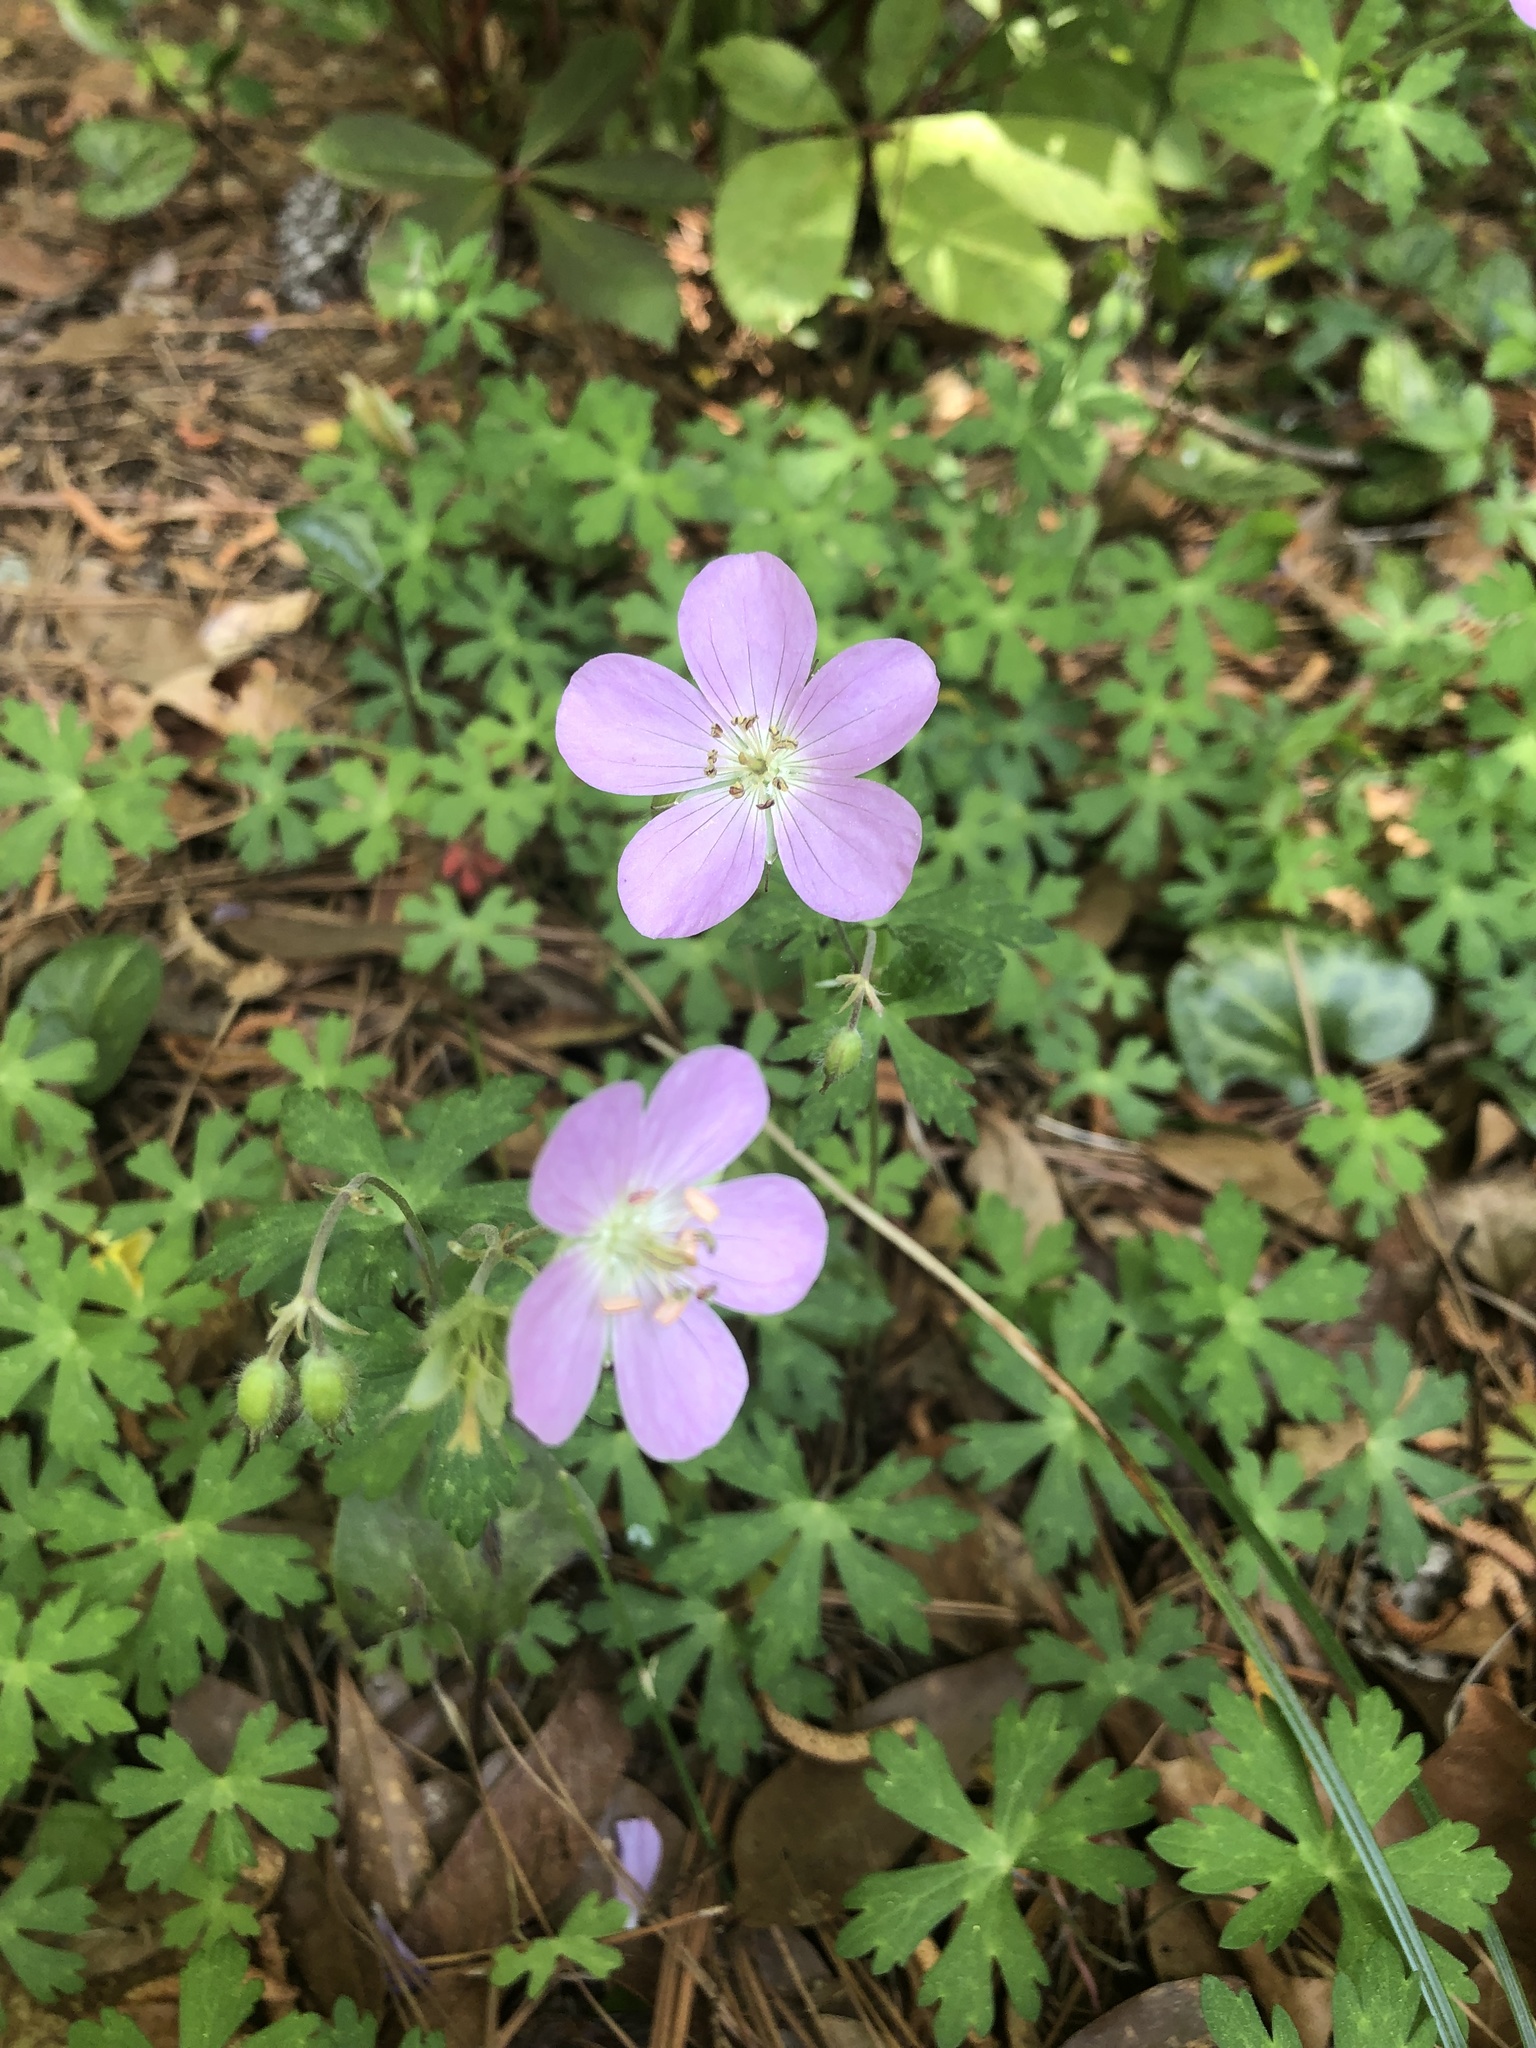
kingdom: Plantae
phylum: Tracheophyta
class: Magnoliopsida
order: Geraniales
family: Geraniaceae
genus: Geranium
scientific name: Geranium maculatum
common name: Spotted geranium
